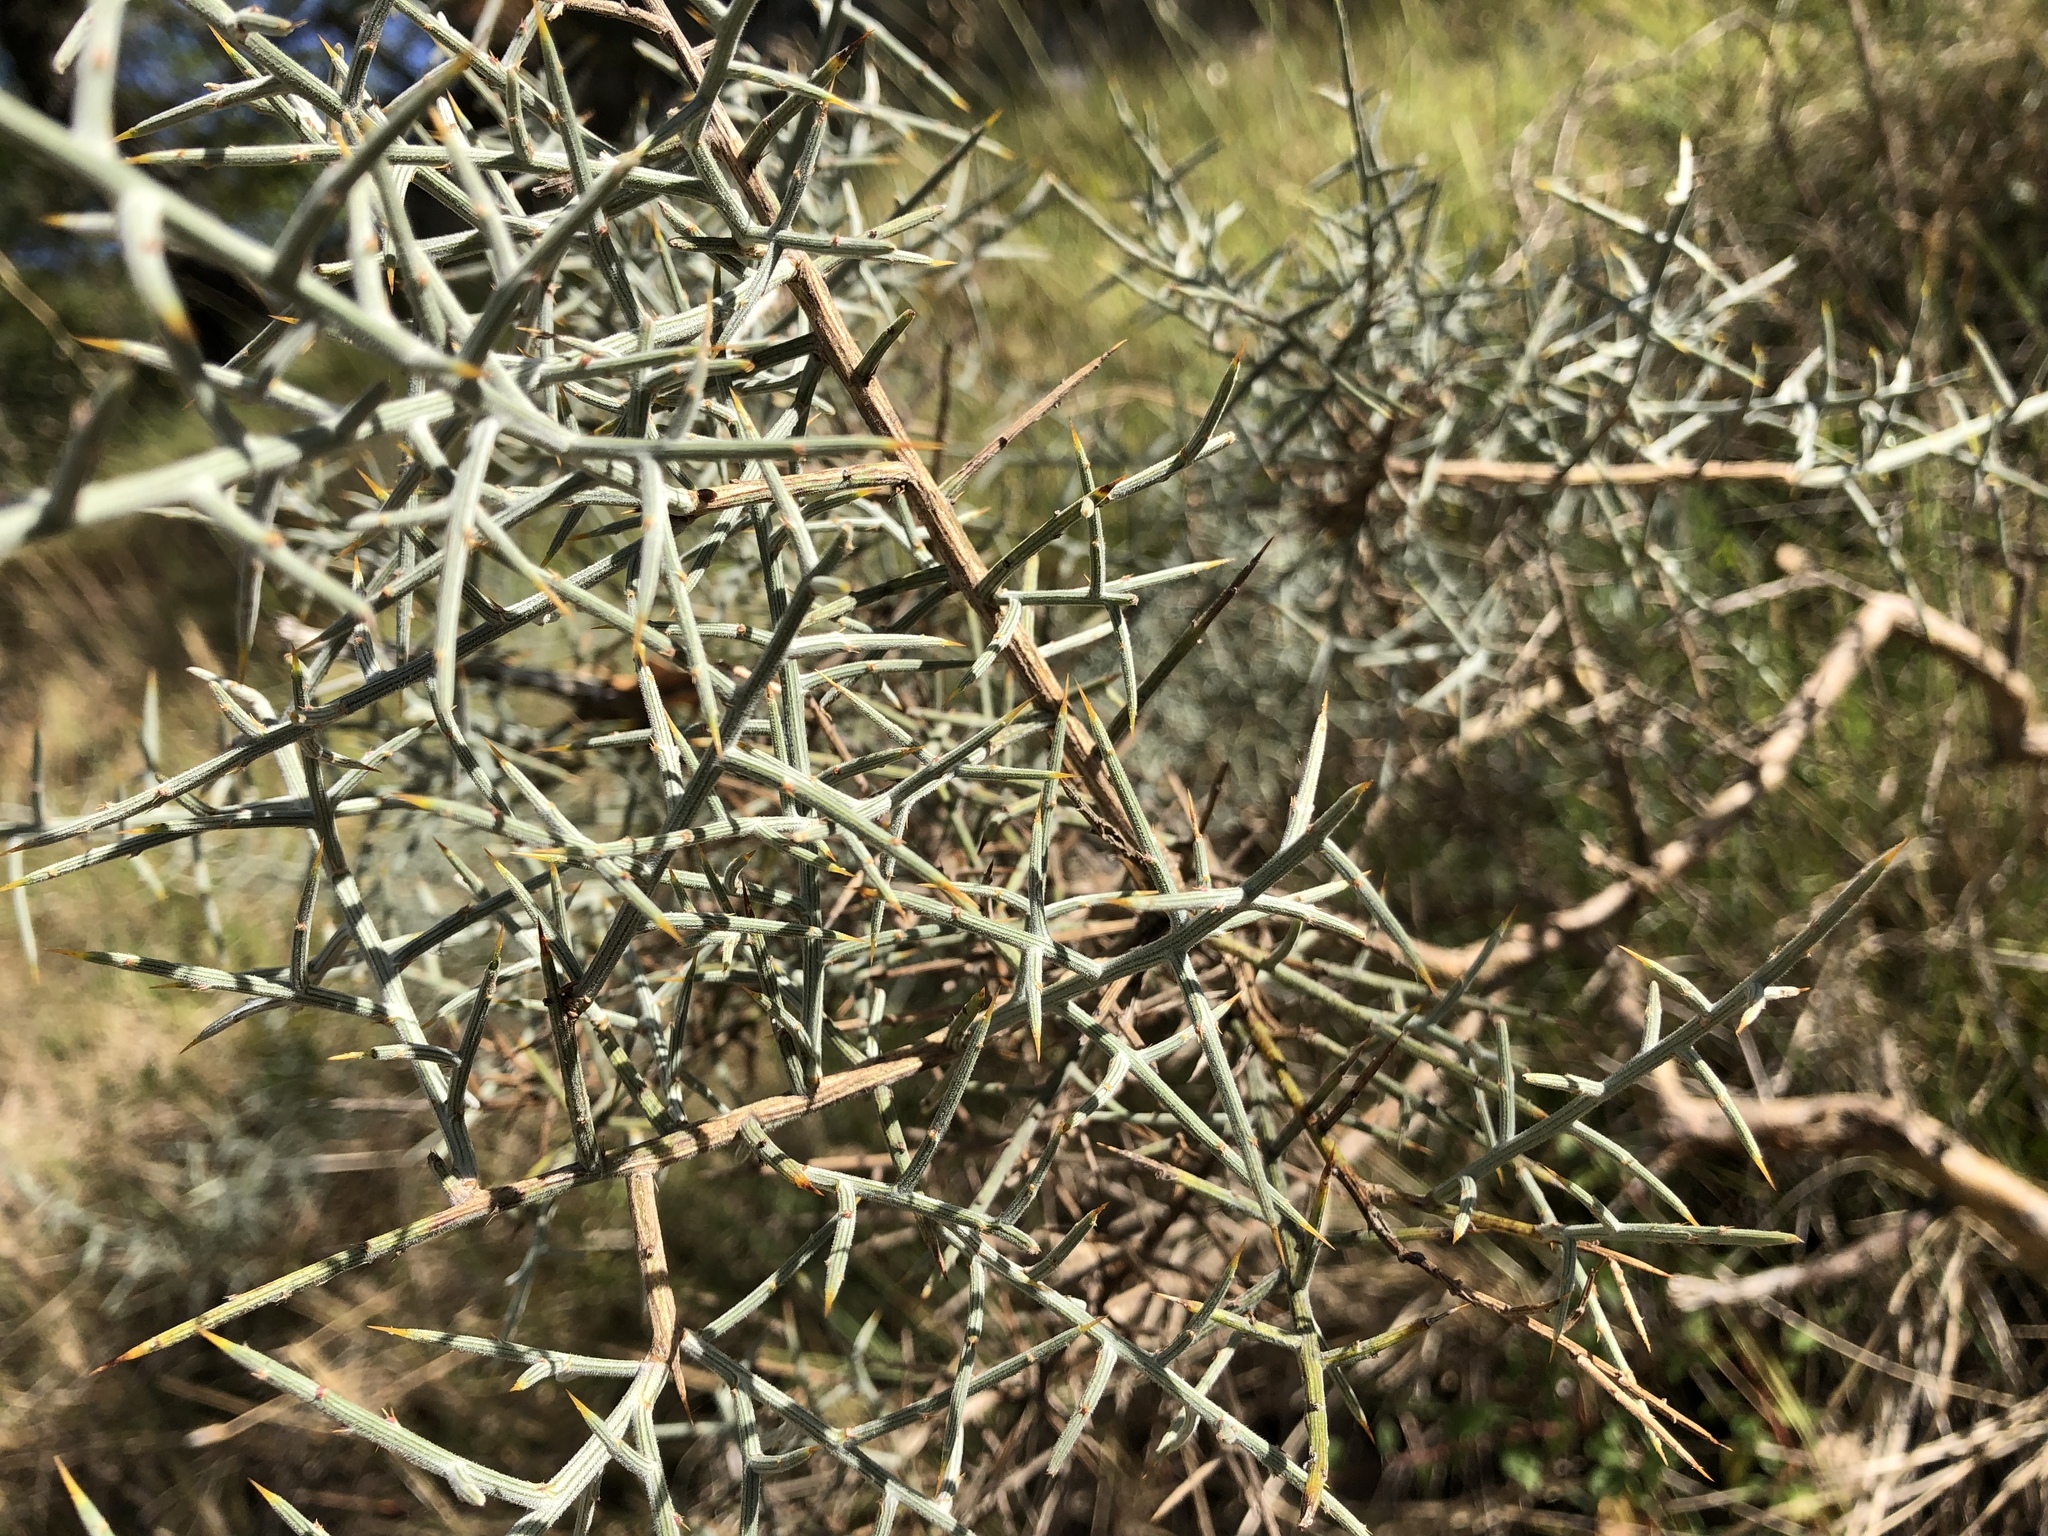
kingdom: Plantae
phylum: Tracheophyta
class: Magnoliopsida
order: Fabales
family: Fabaceae
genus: Genista
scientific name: Genista scorpius
